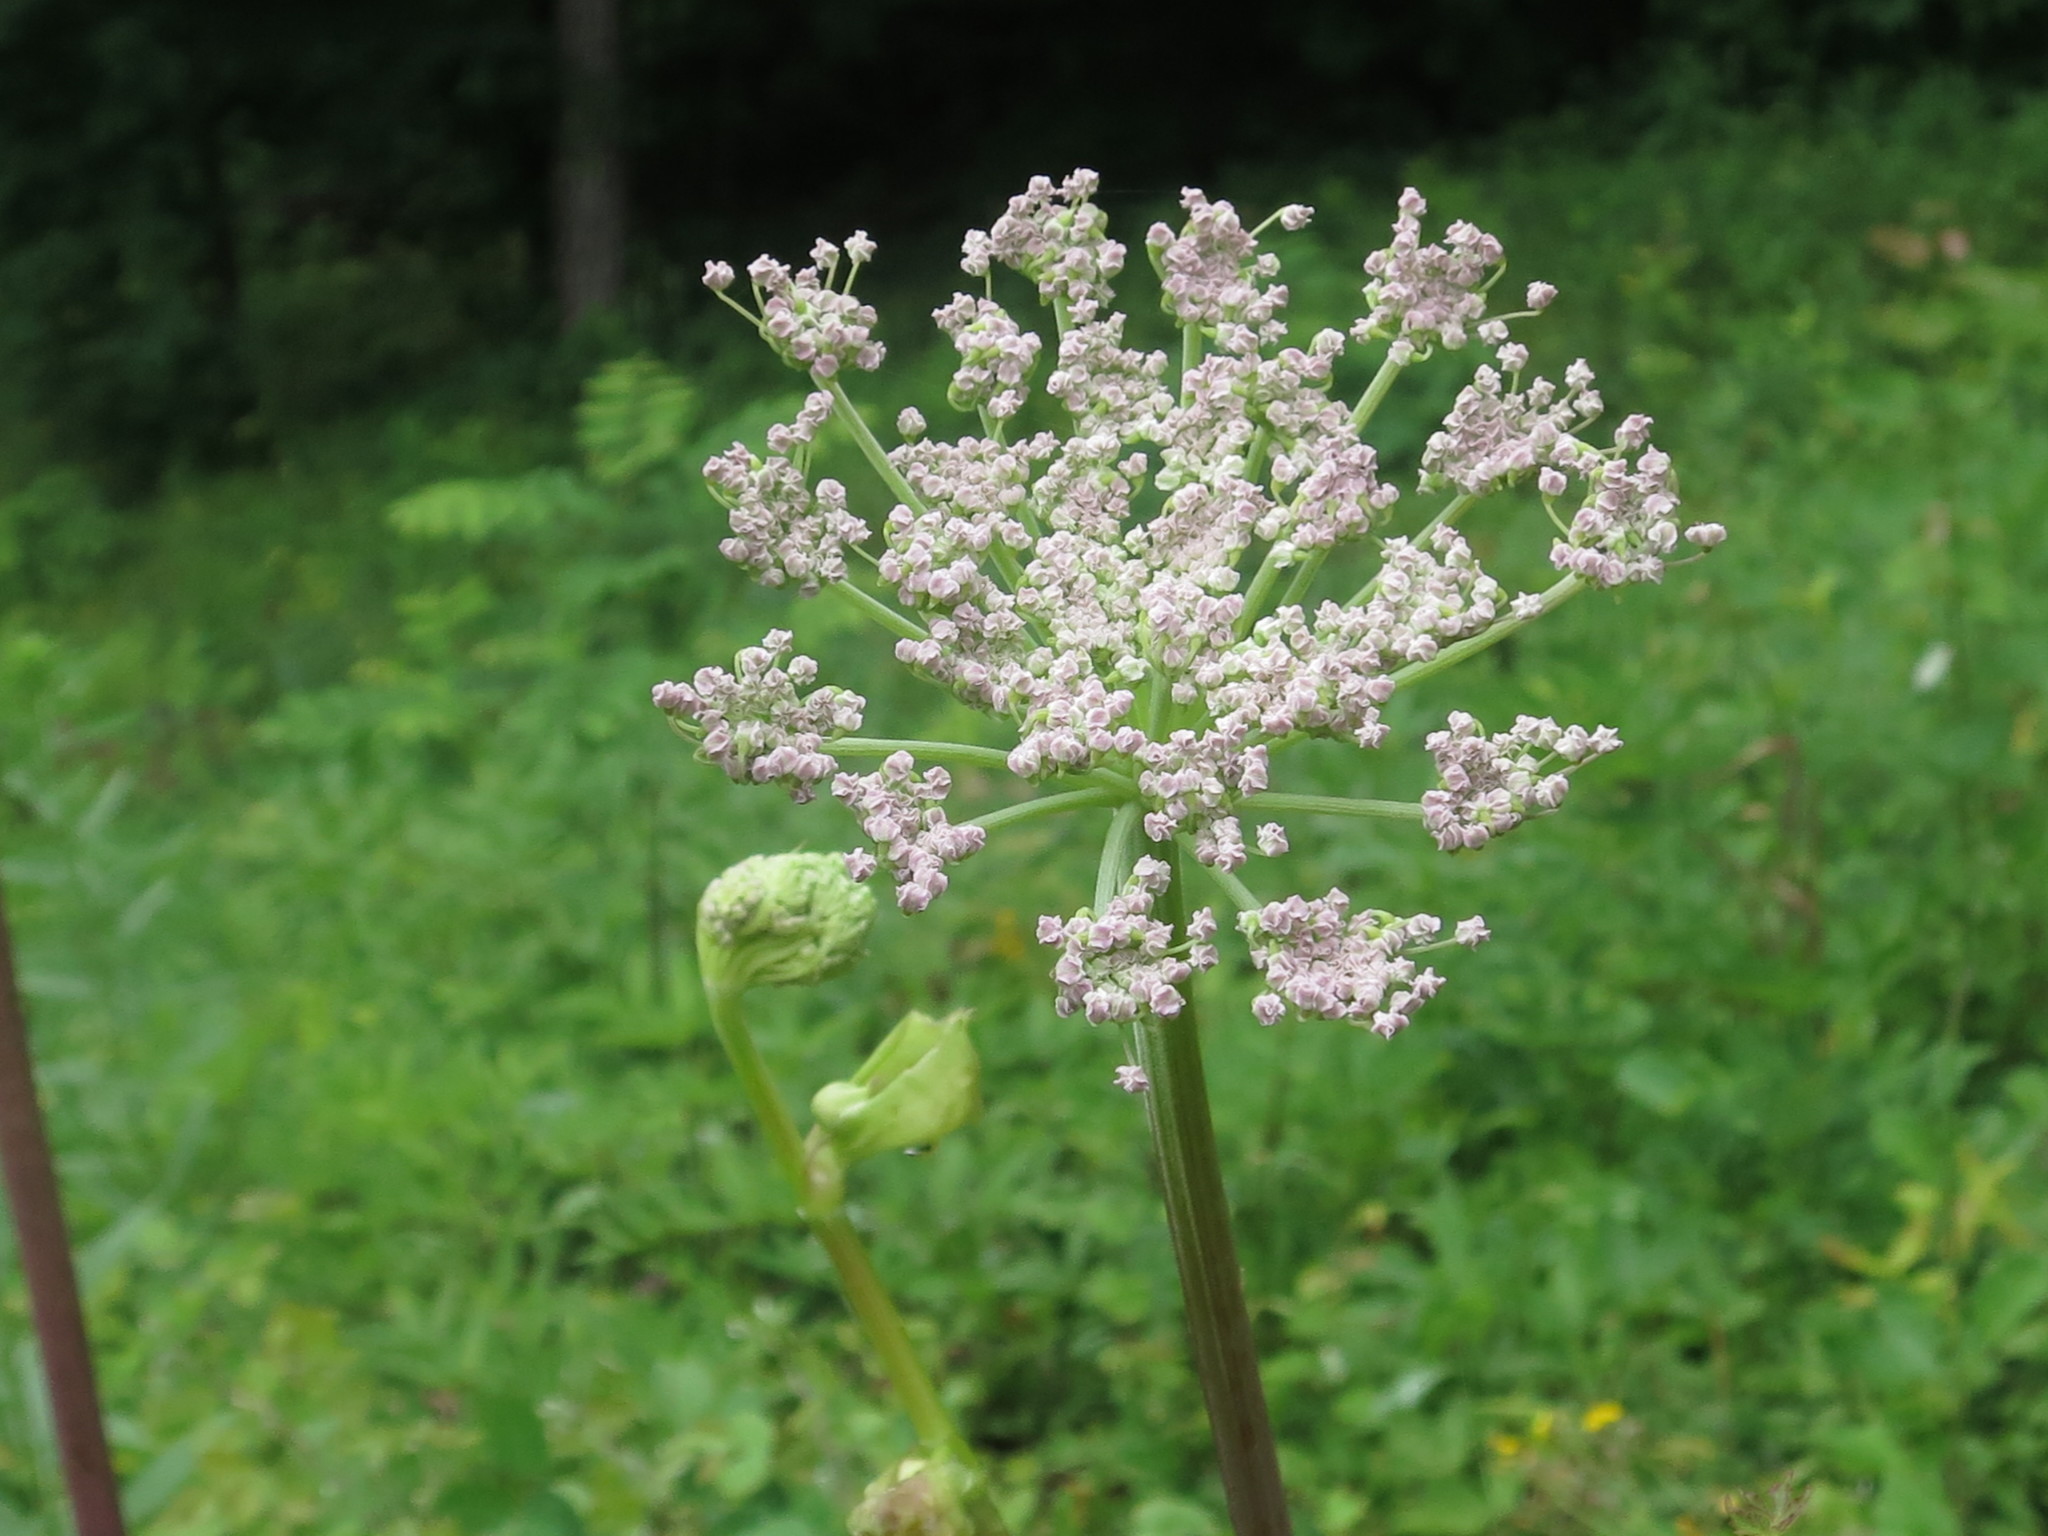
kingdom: Plantae
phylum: Tracheophyta
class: Magnoliopsida
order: Apiales
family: Apiaceae
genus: Angelica
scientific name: Angelica cincta
